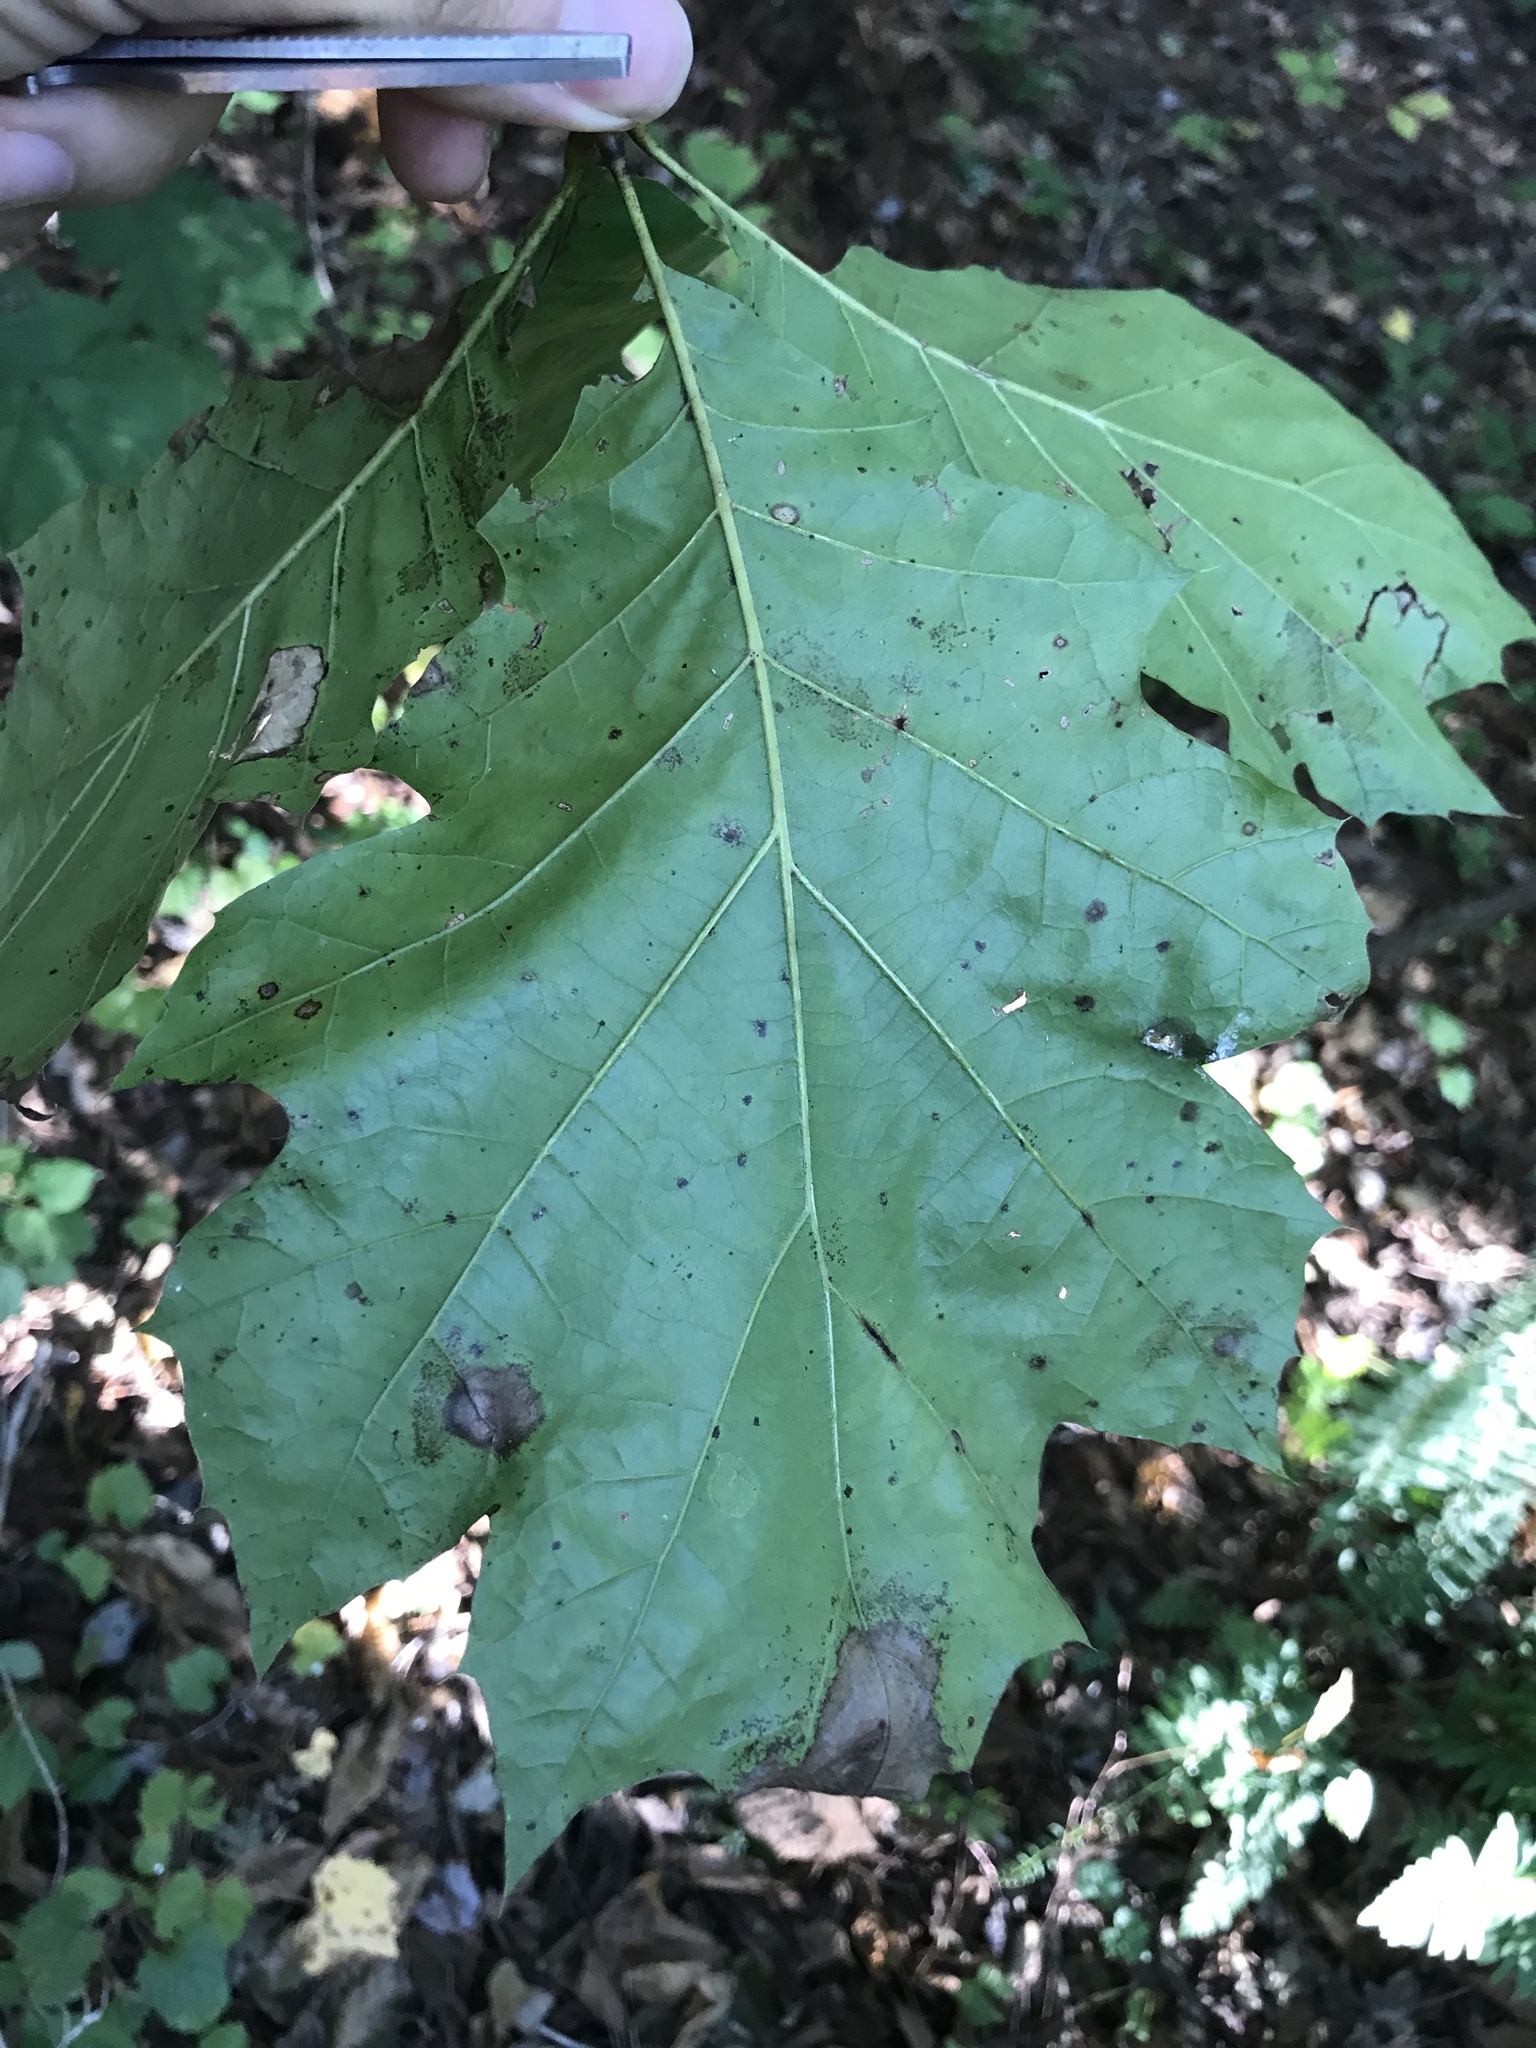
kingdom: Plantae
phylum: Tracheophyta
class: Magnoliopsida
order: Fagales
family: Fagaceae
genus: Quercus
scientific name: Quercus rubra
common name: Red oak
